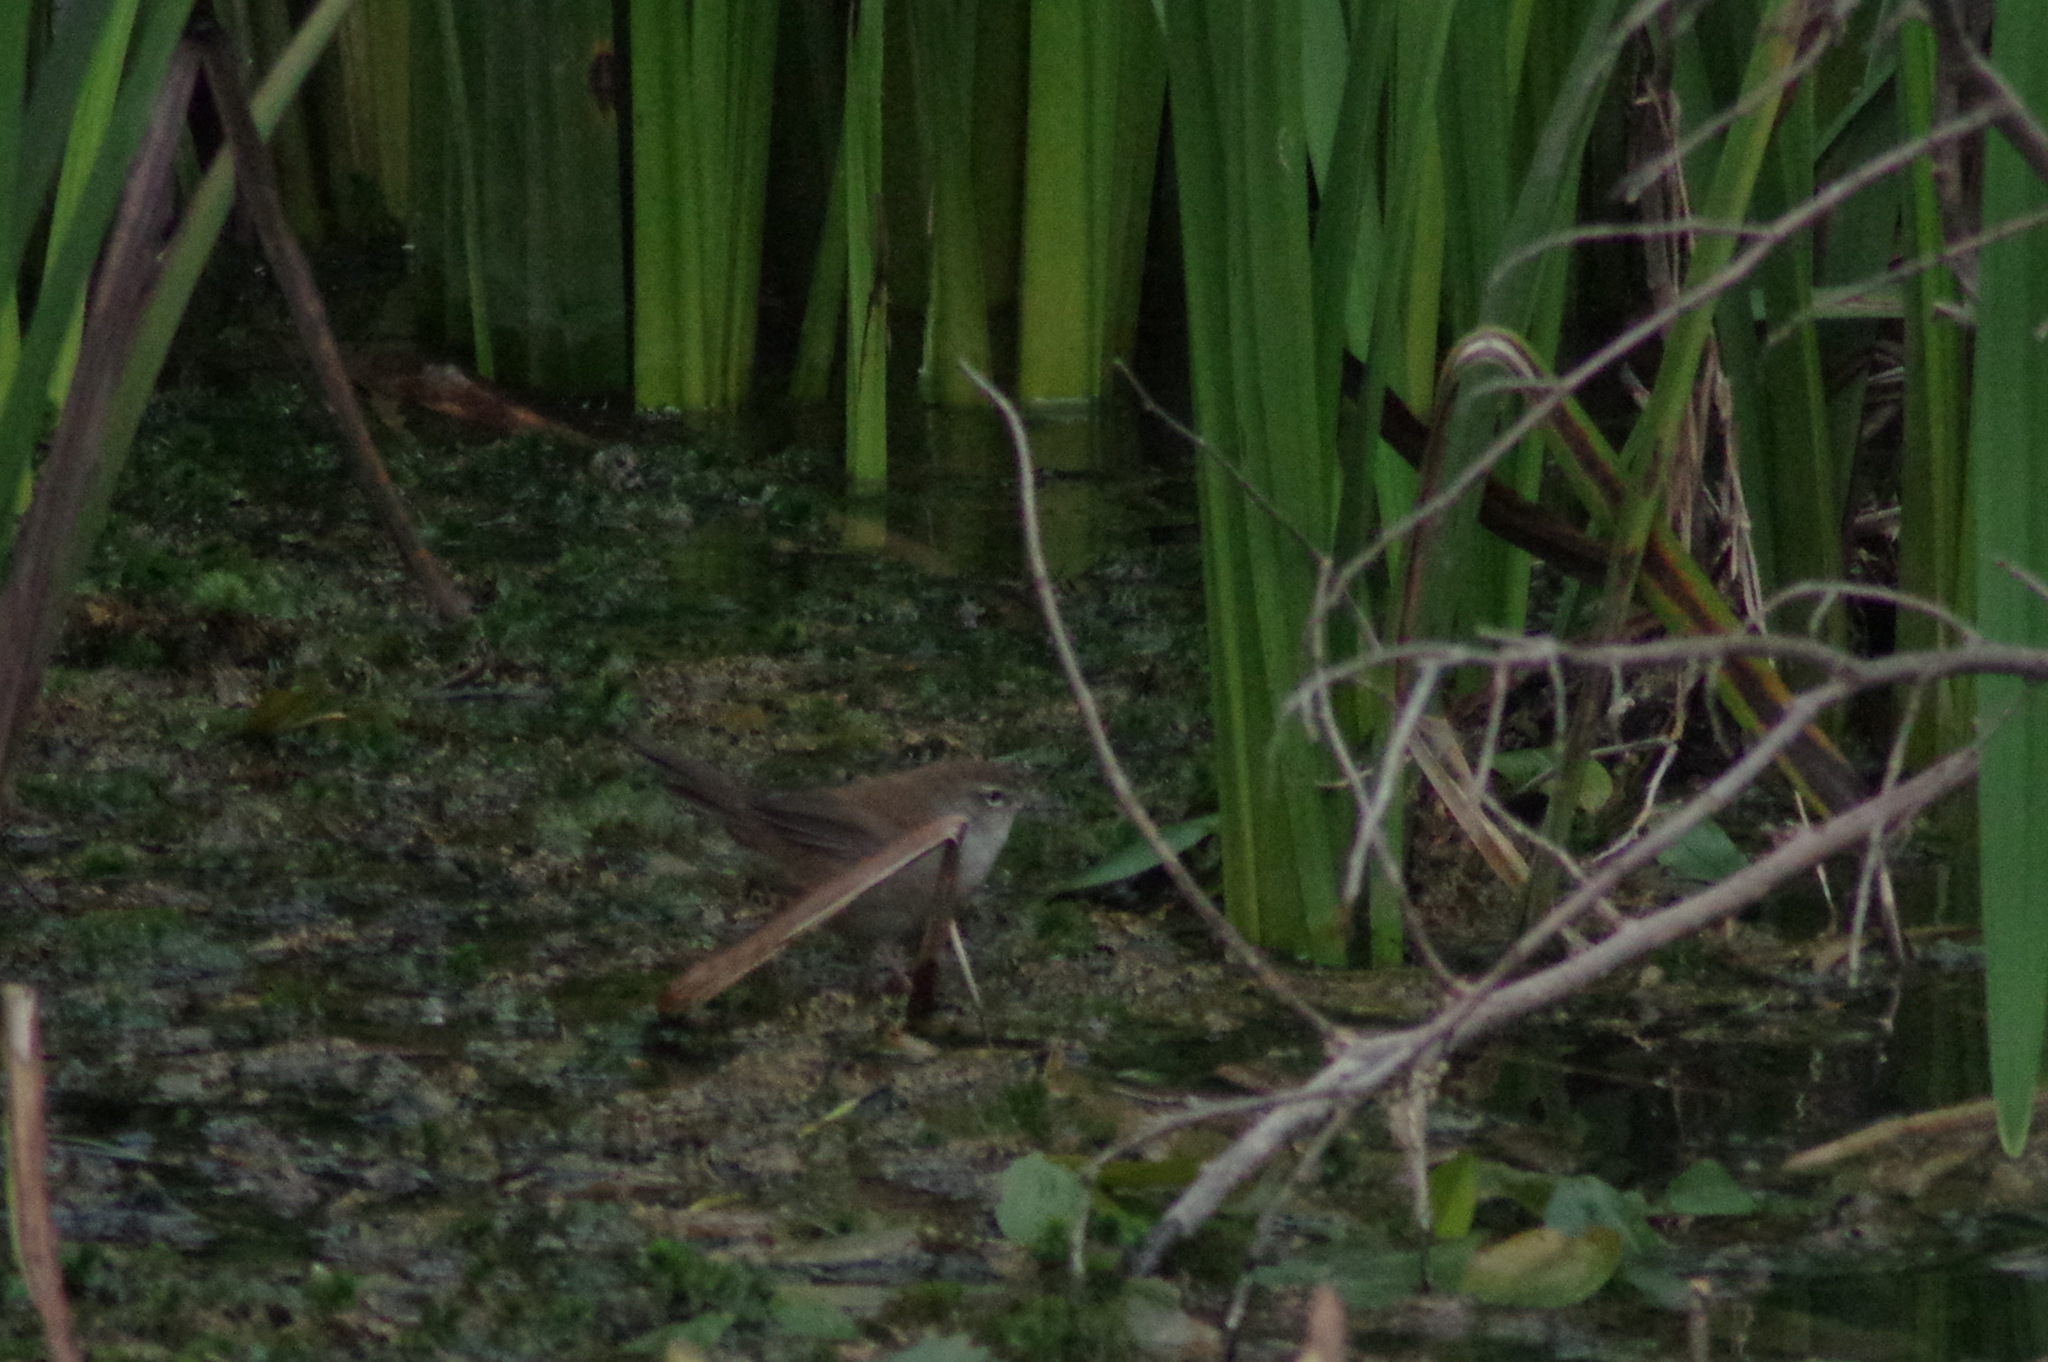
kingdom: Animalia
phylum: Chordata
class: Aves
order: Passeriformes
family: Cettiidae
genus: Cettia
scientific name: Cettia cetti
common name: Cetti's warbler
